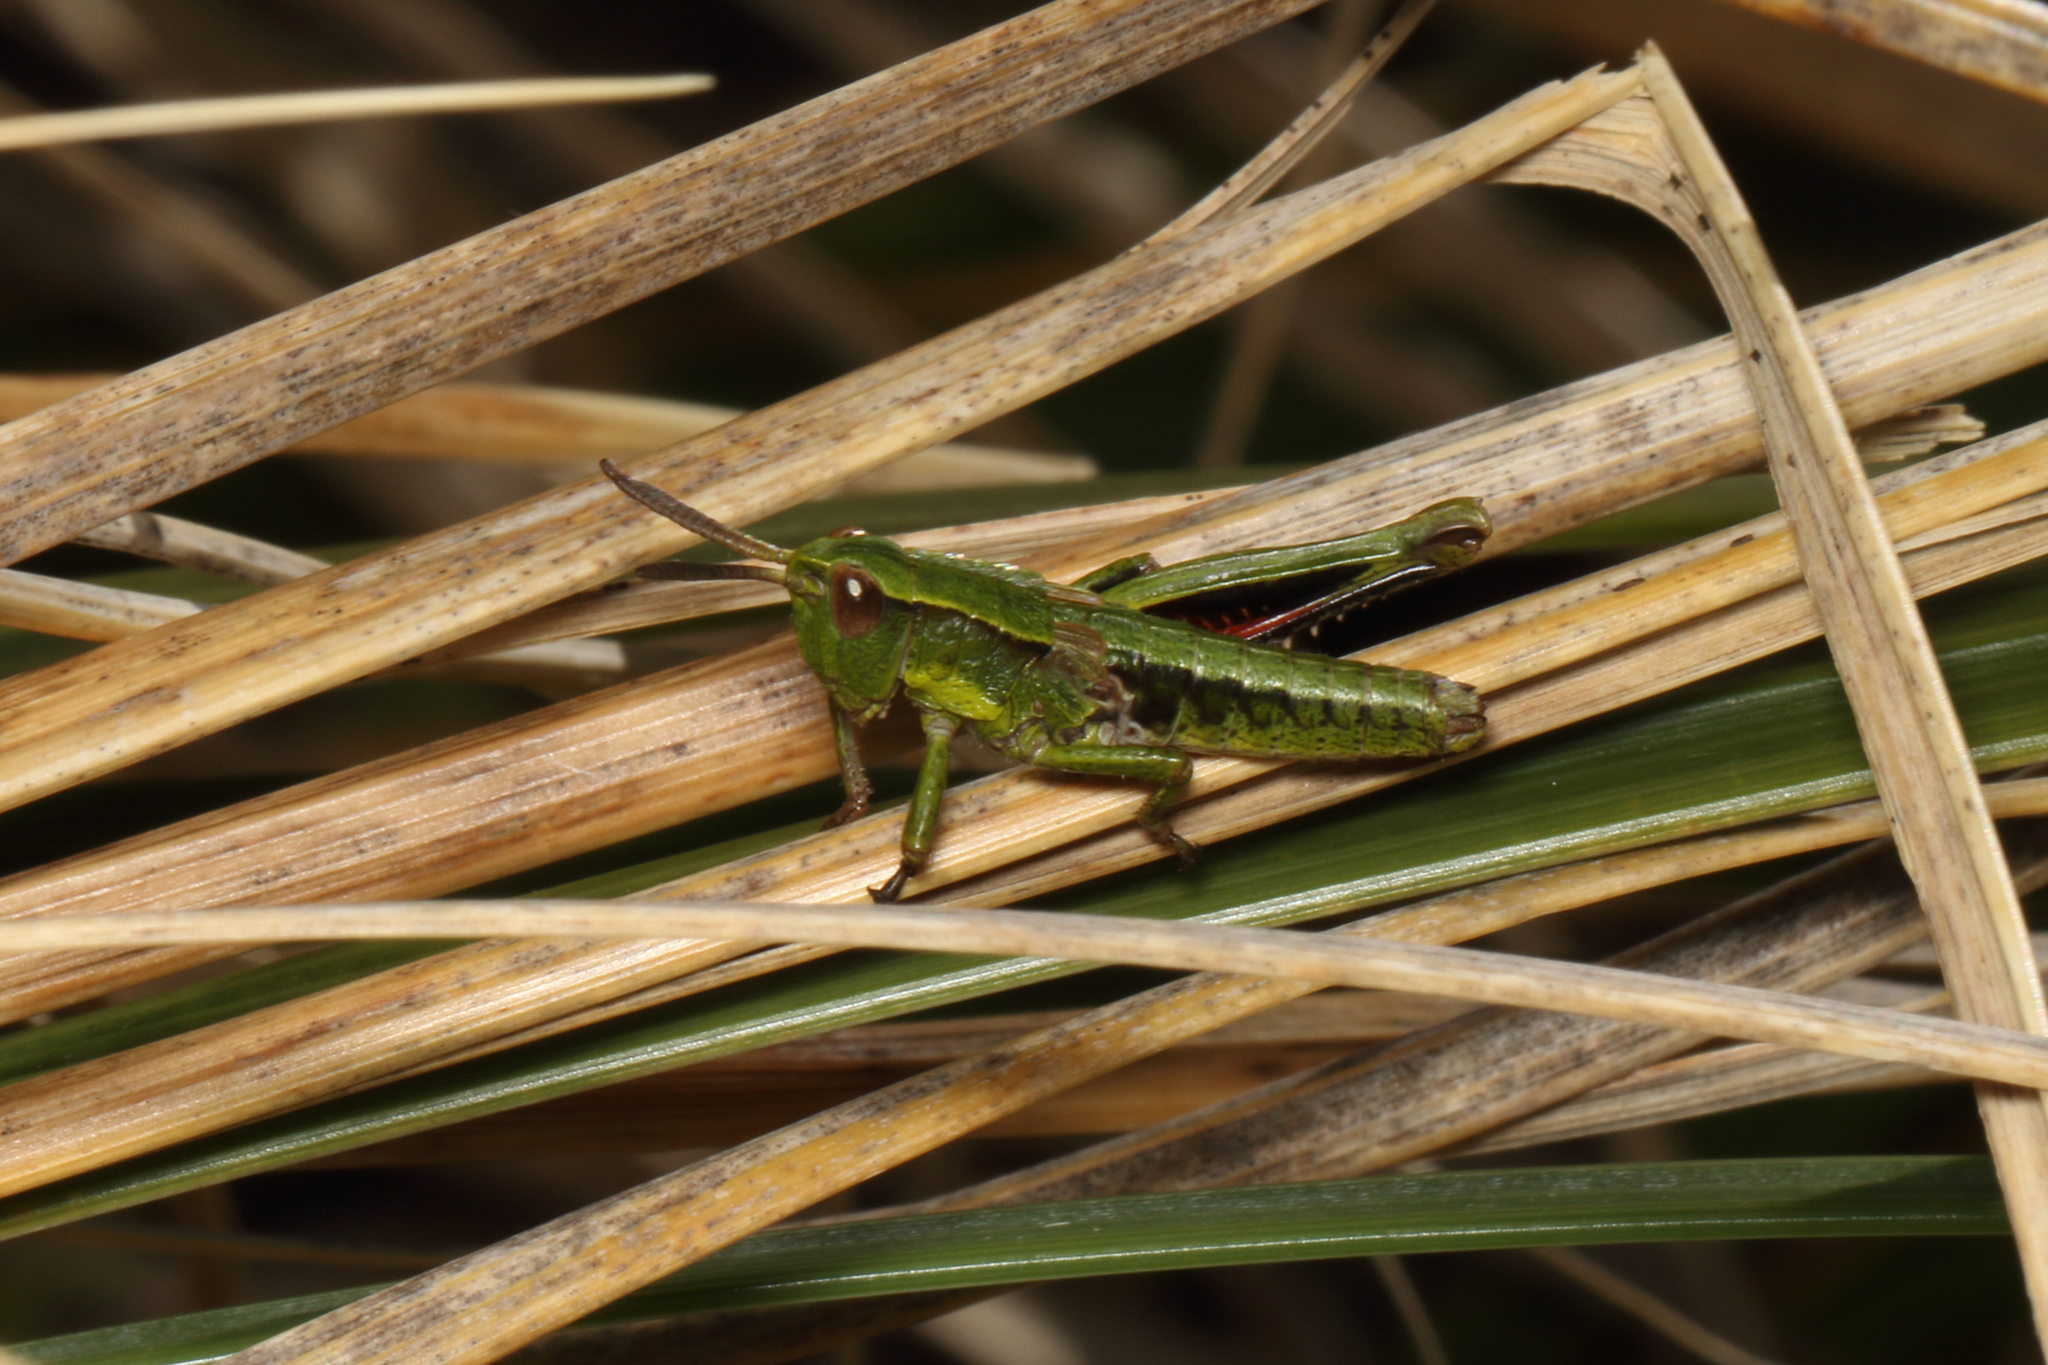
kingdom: Animalia
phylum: Arthropoda
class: Insecta
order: Orthoptera
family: Acrididae
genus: Sigaus
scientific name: Sigaus piliferus
